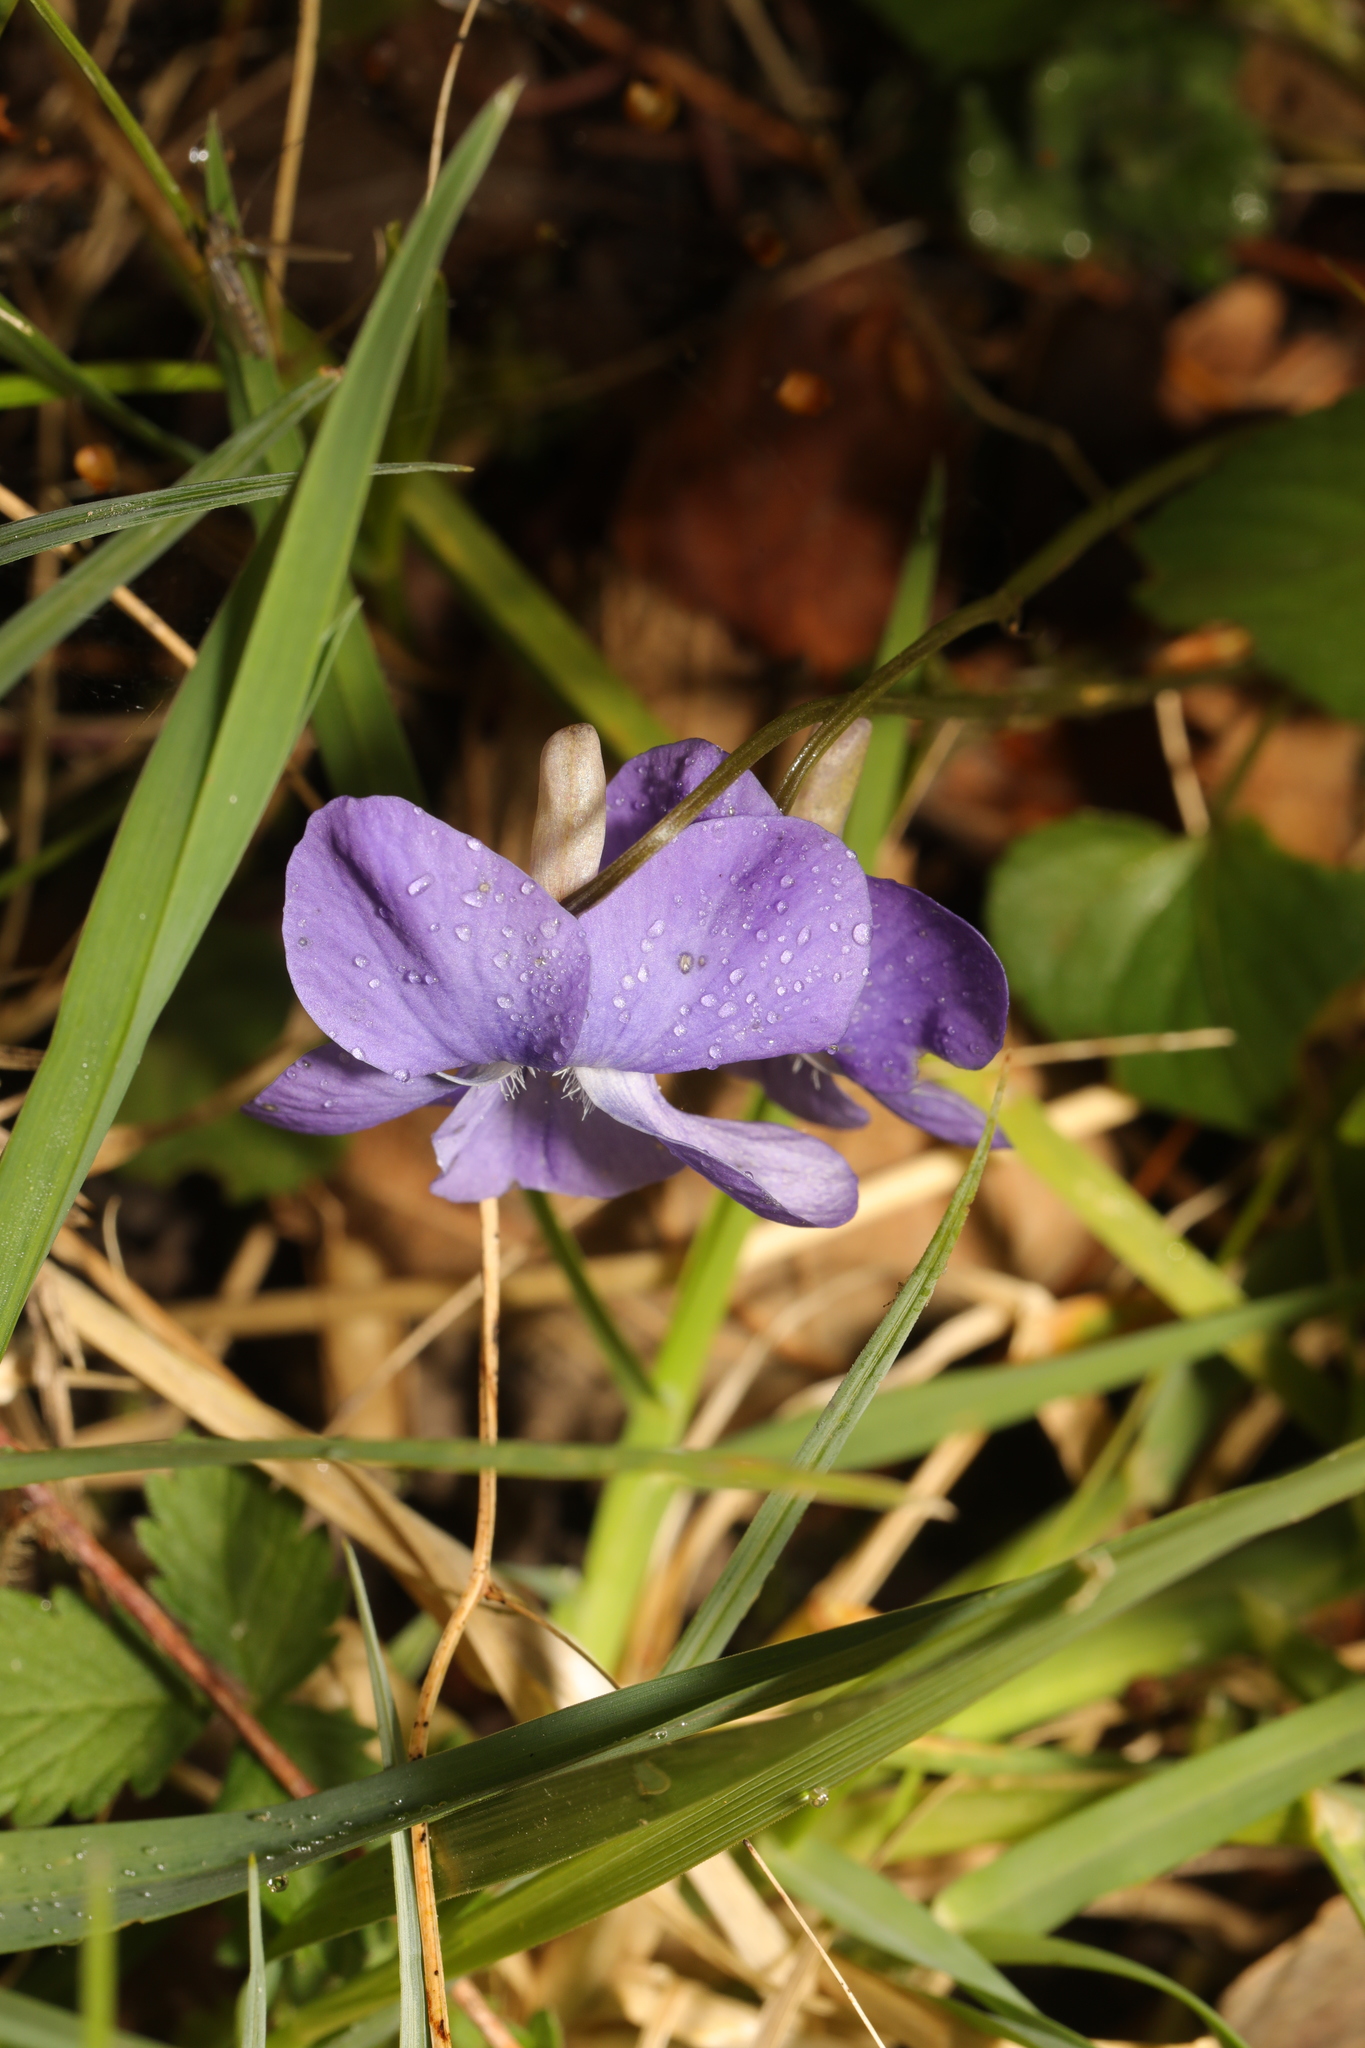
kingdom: Plantae
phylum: Tracheophyta
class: Magnoliopsida
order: Malpighiales
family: Violaceae
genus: Viola
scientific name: Viola riviniana
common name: Common dog-violet
